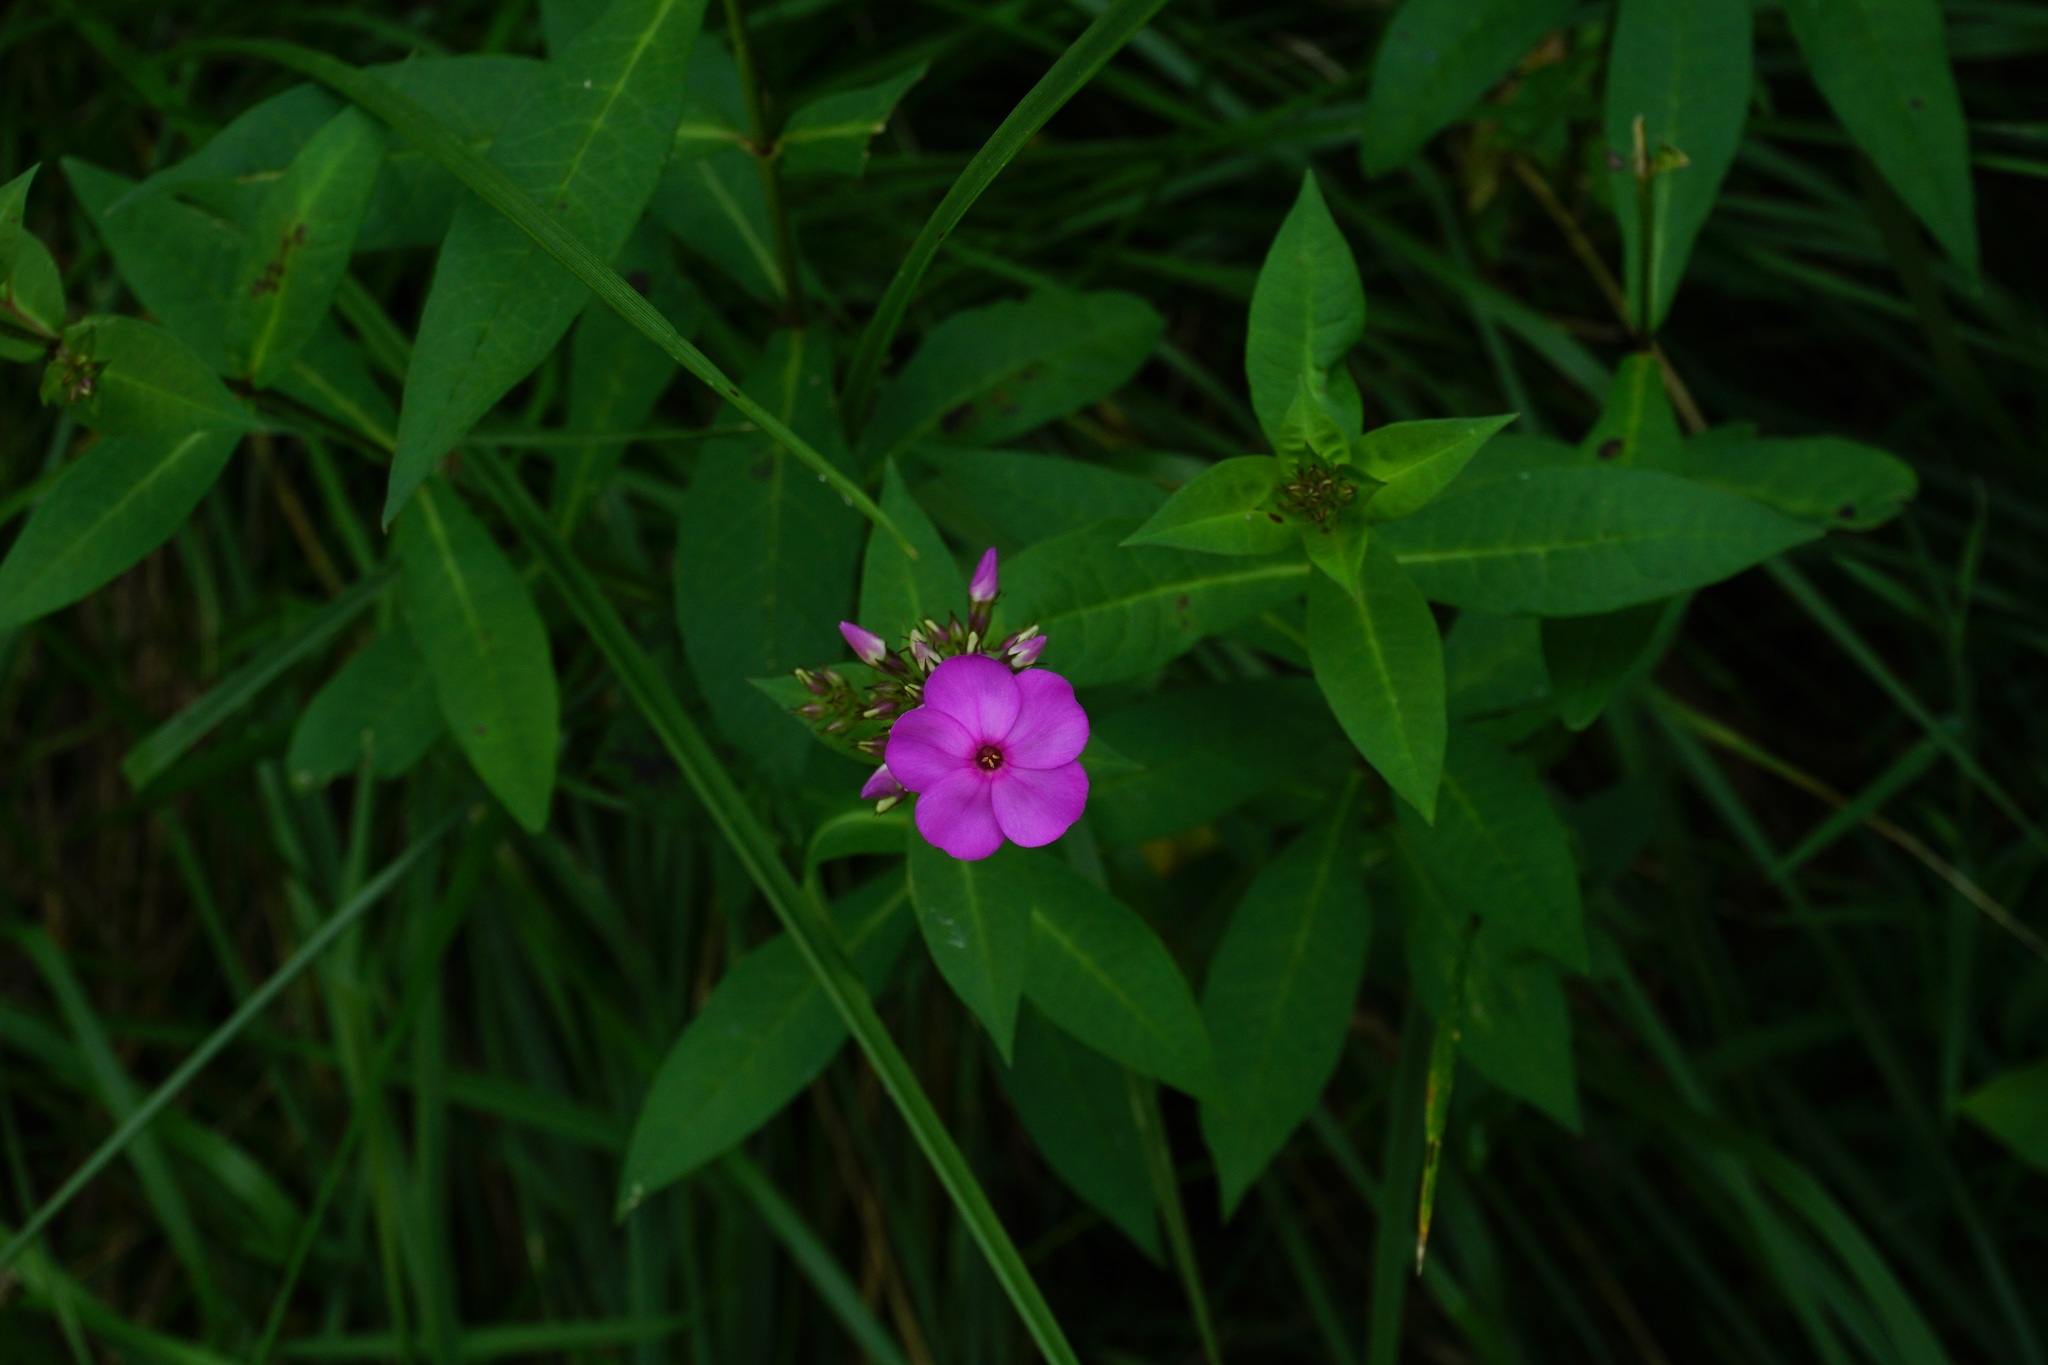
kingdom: Plantae
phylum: Tracheophyta
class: Magnoliopsida
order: Ericales
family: Polemoniaceae
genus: Phlox
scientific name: Phlox paniculata
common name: Fall phlox
